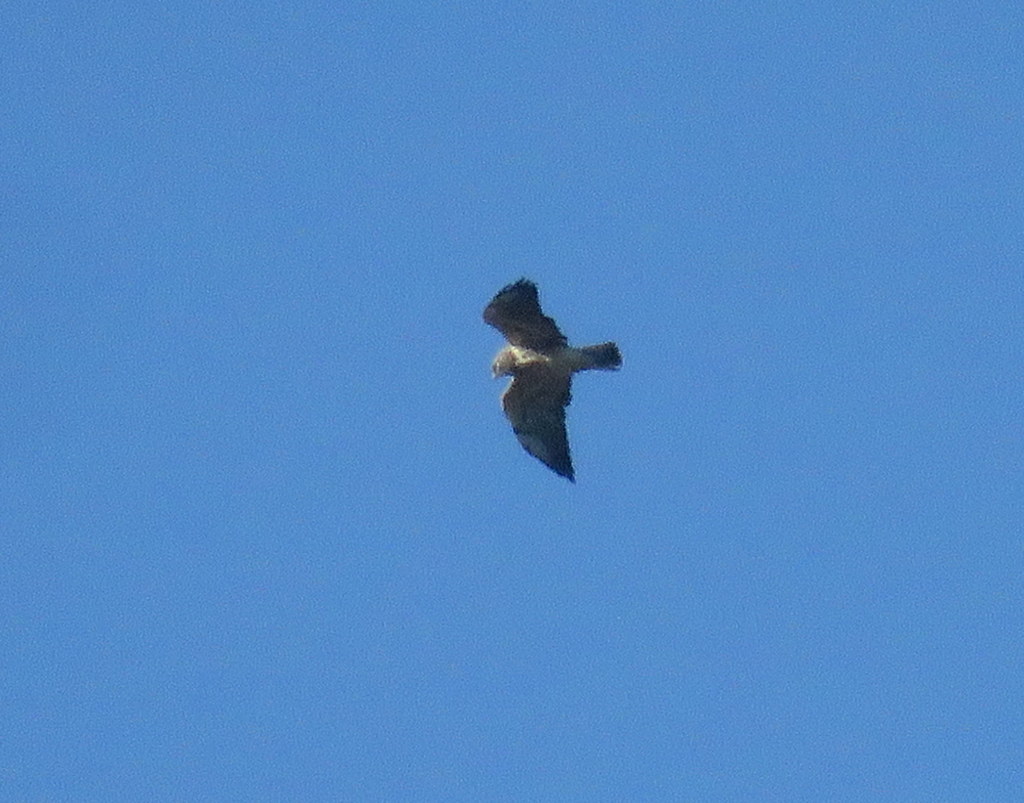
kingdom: Animalia
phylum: Chordata
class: Aves
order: Accipitriformes
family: Accipitridae
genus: Buteo
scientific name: Buteo swainsoni
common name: Swainson's hawk
